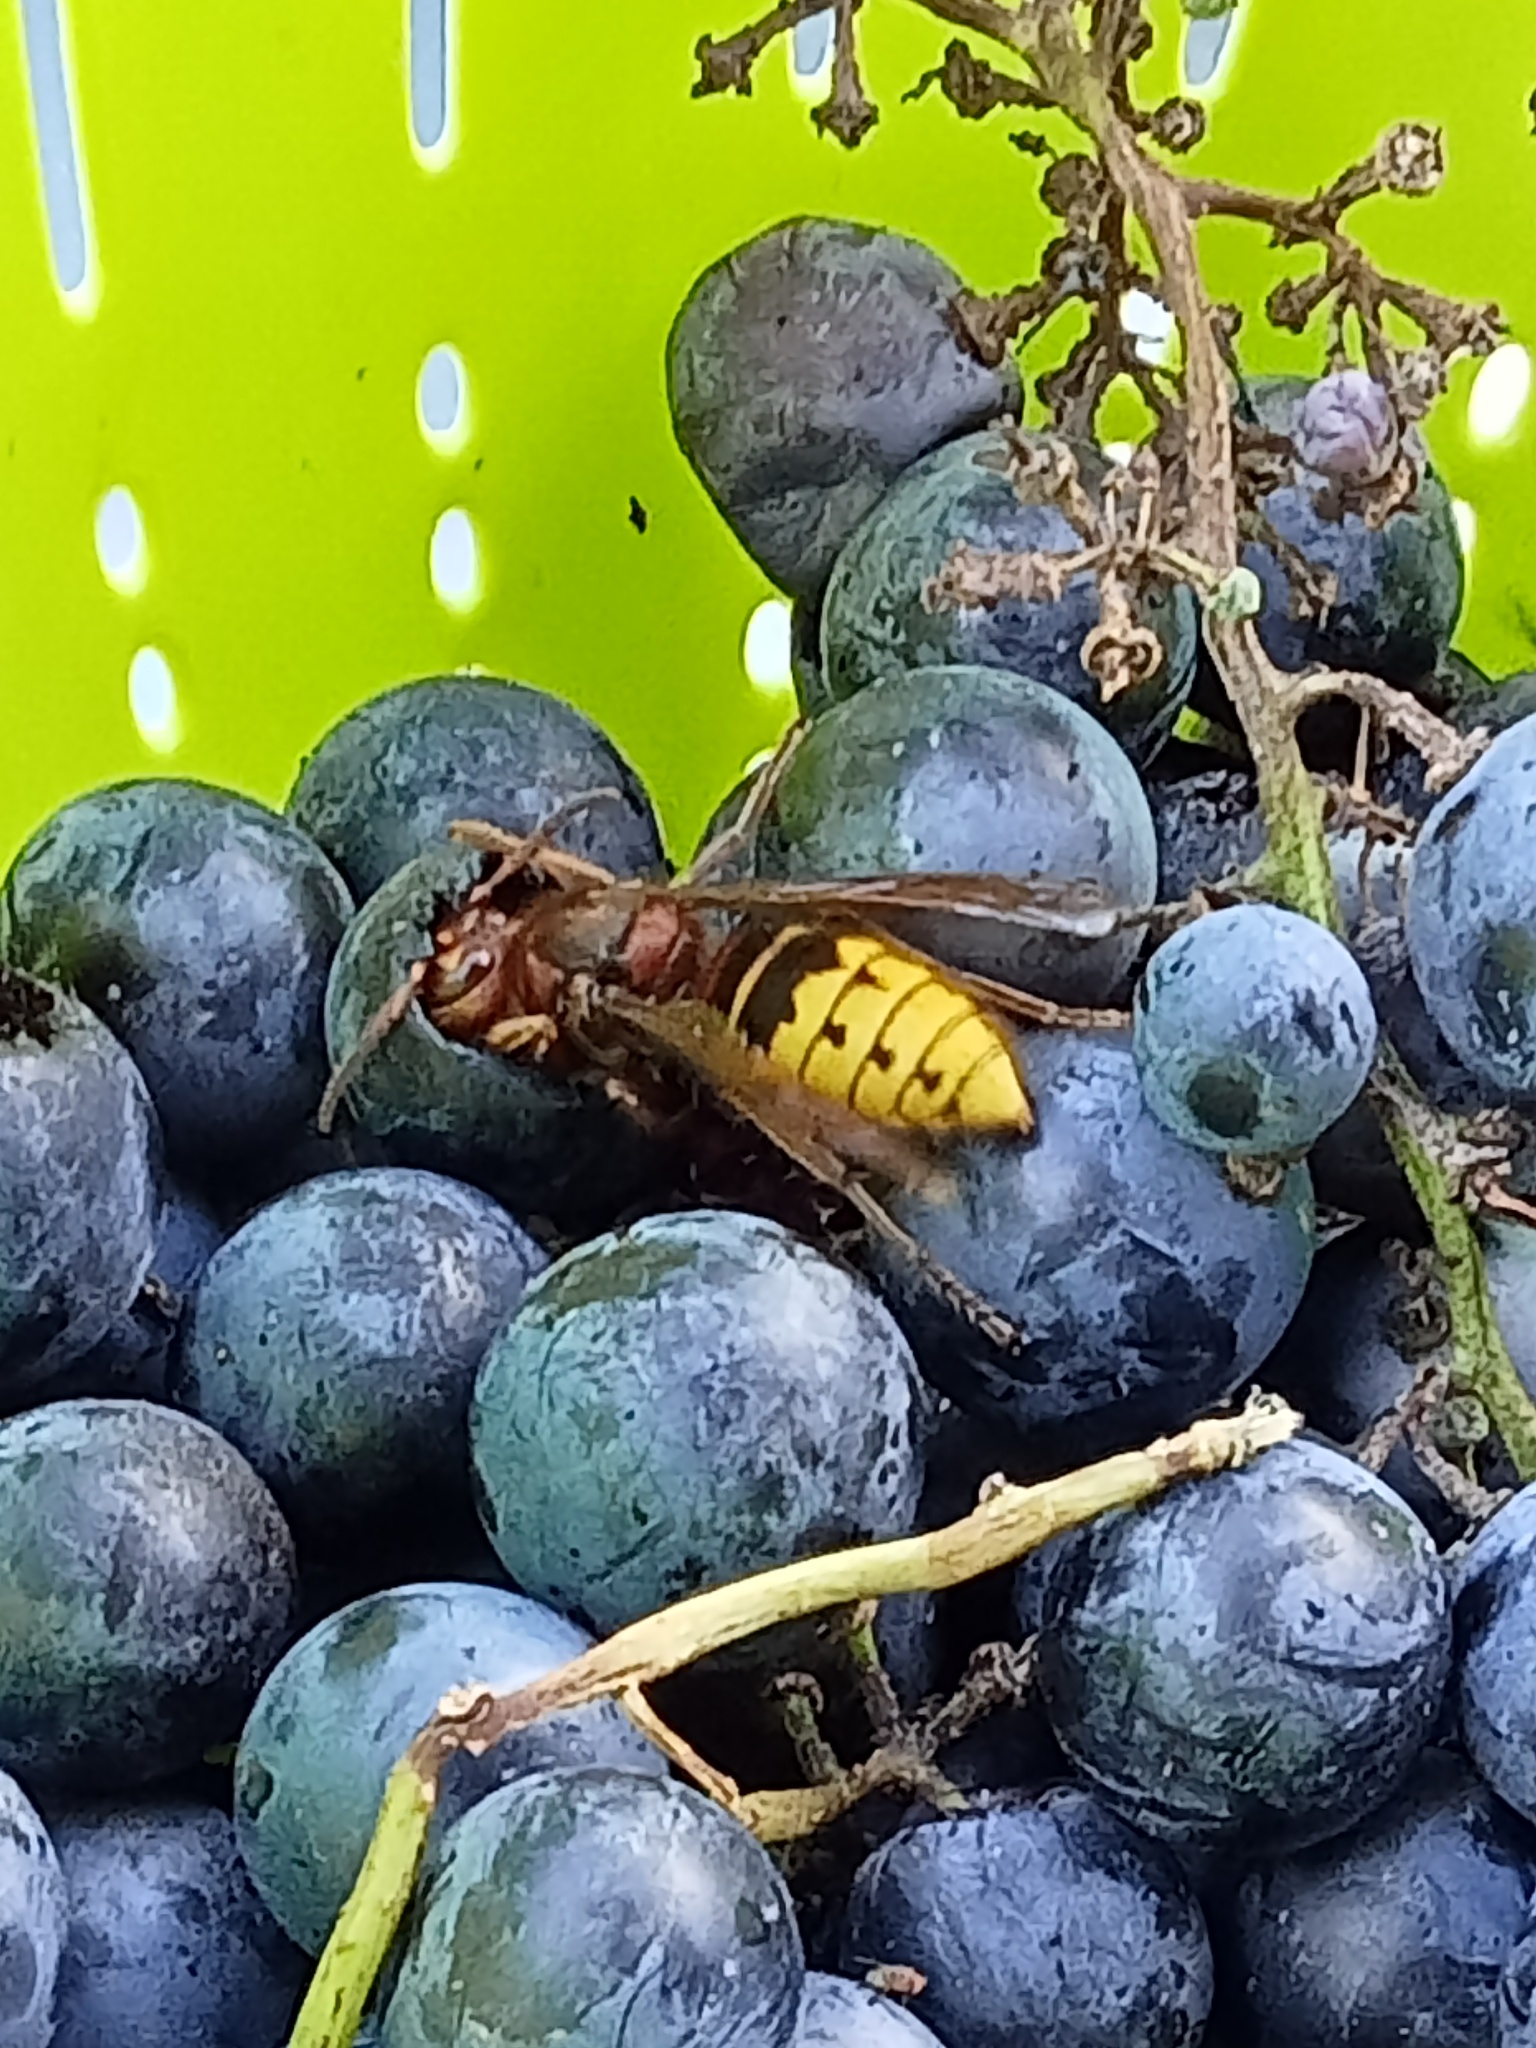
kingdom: Animalia
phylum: Arthropoda
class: Insecta
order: Hymenoptera
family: Vespidae
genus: Vespa
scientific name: Vespa crabro
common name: Hornet
